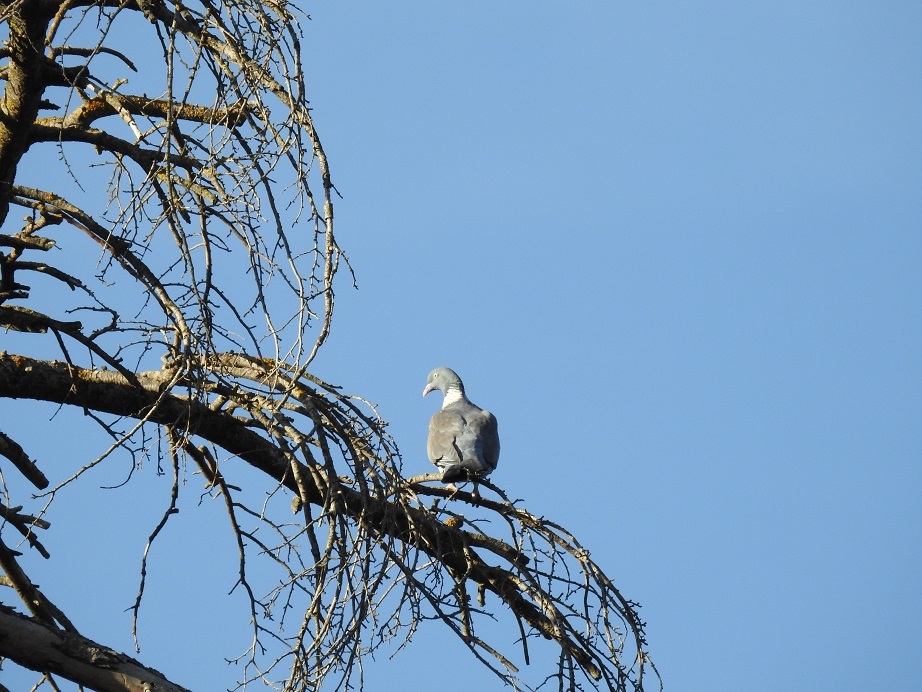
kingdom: Animalia
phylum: Chordata
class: Aves
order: Columbiformes
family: Columbidae
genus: Columba
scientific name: Columba palumbus
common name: Common wood pigeon
